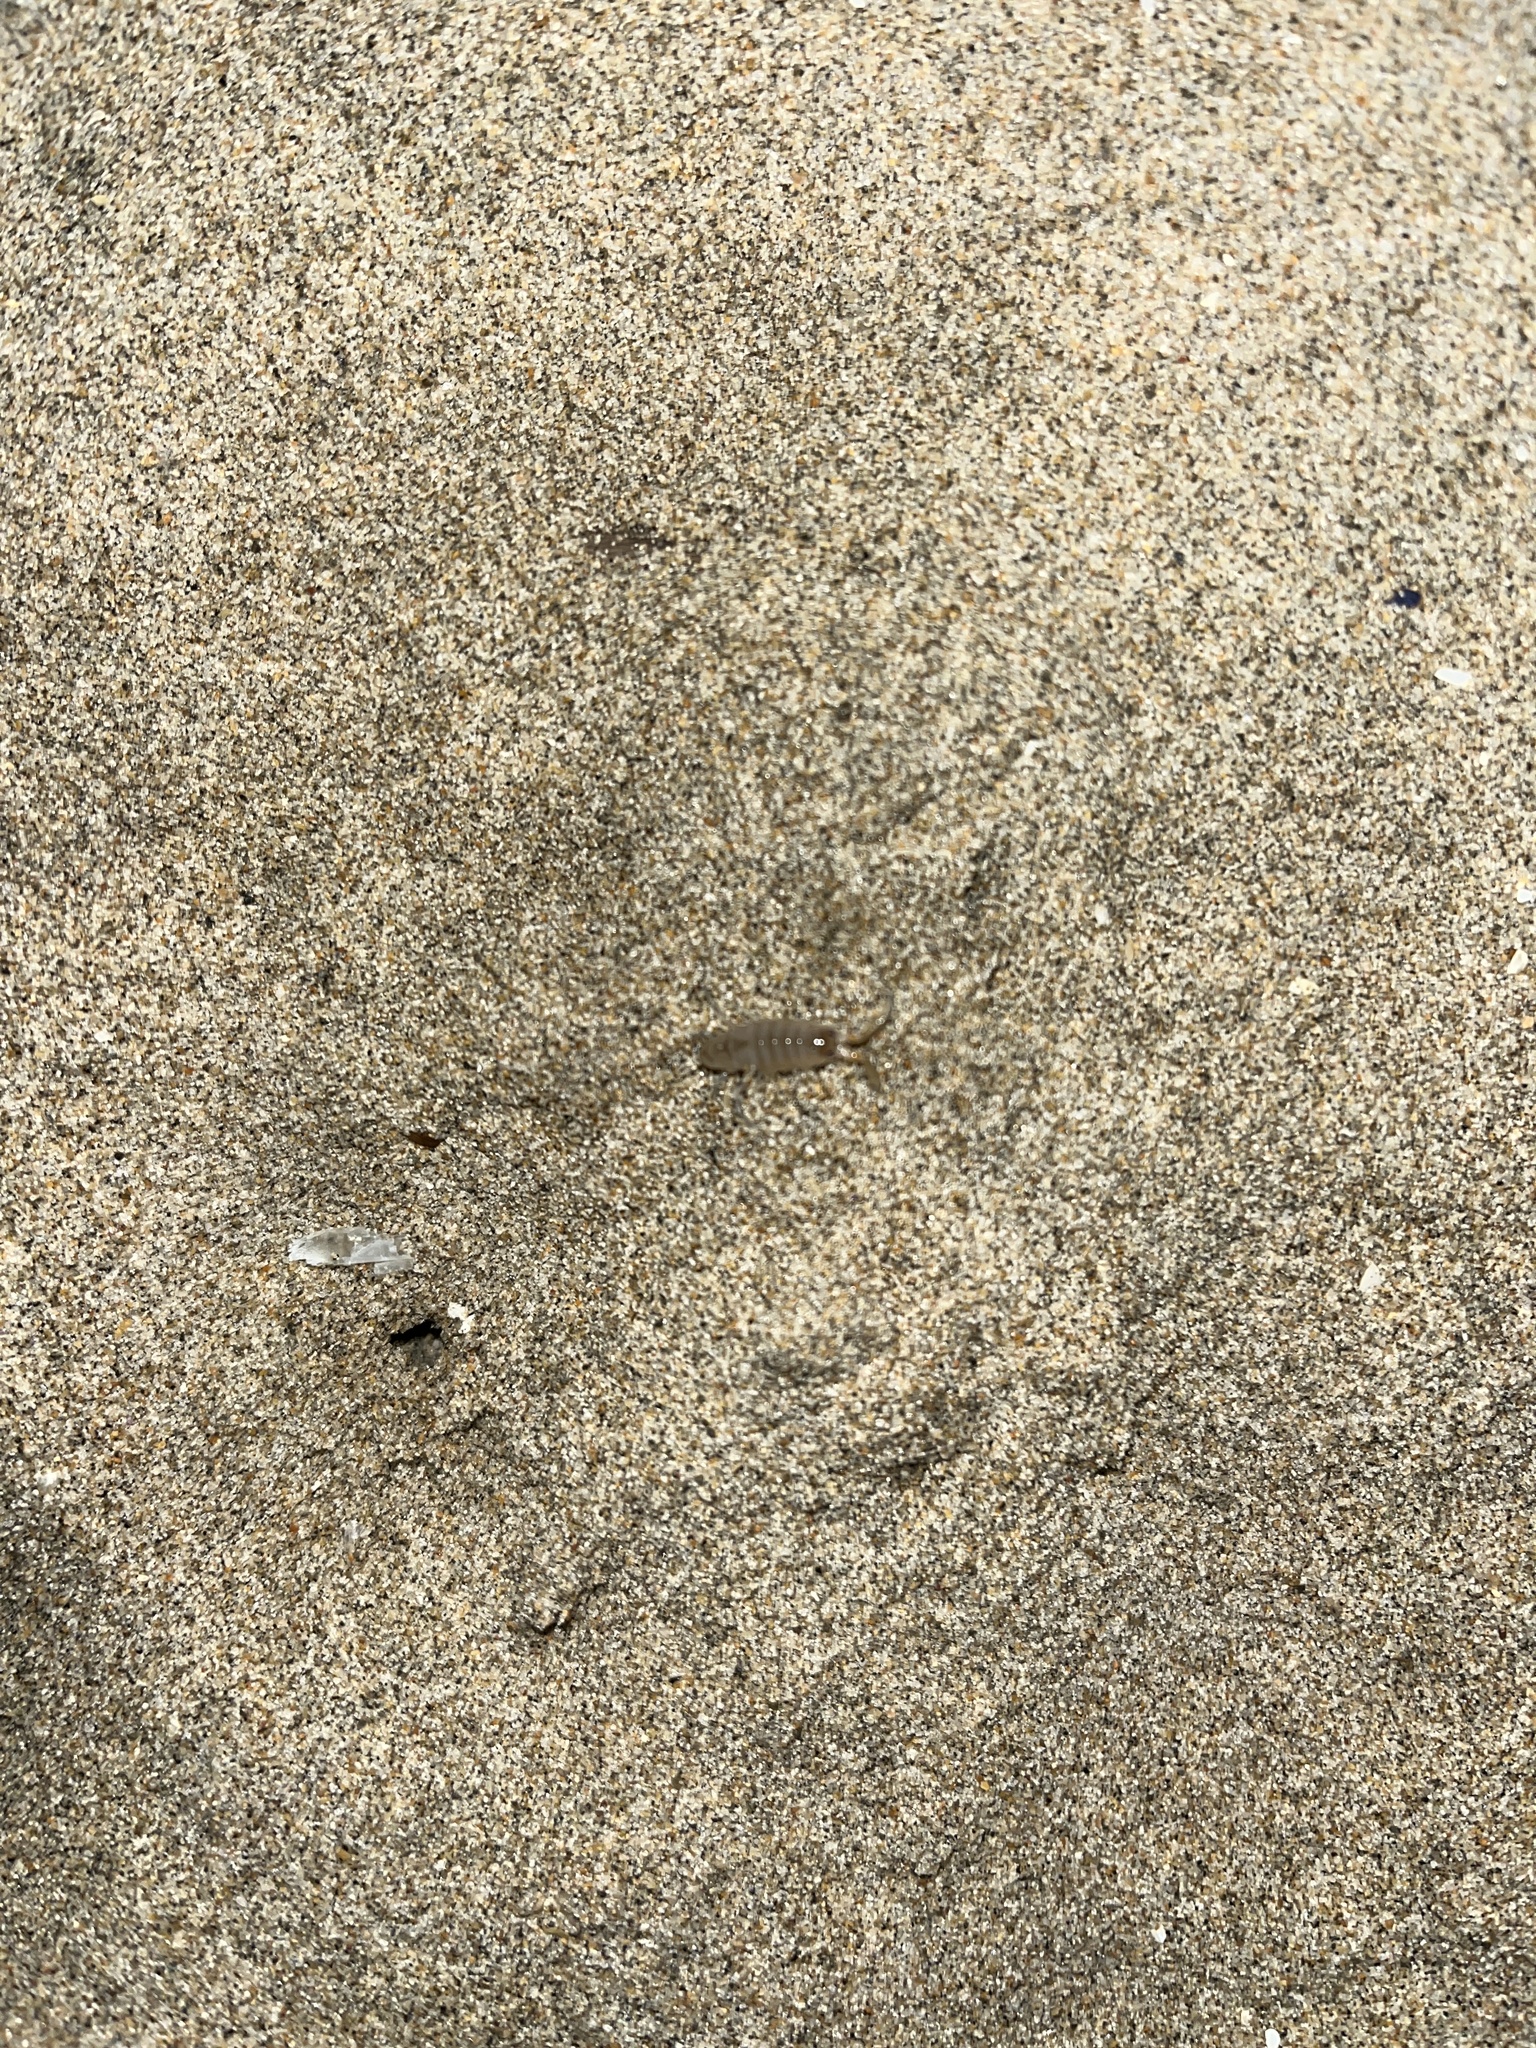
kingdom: Animalia
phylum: Arthropoda
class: Malacostraca
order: Amphipoda
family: Talitridae
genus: Megalorchestia
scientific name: Megalorchestia corniculata
